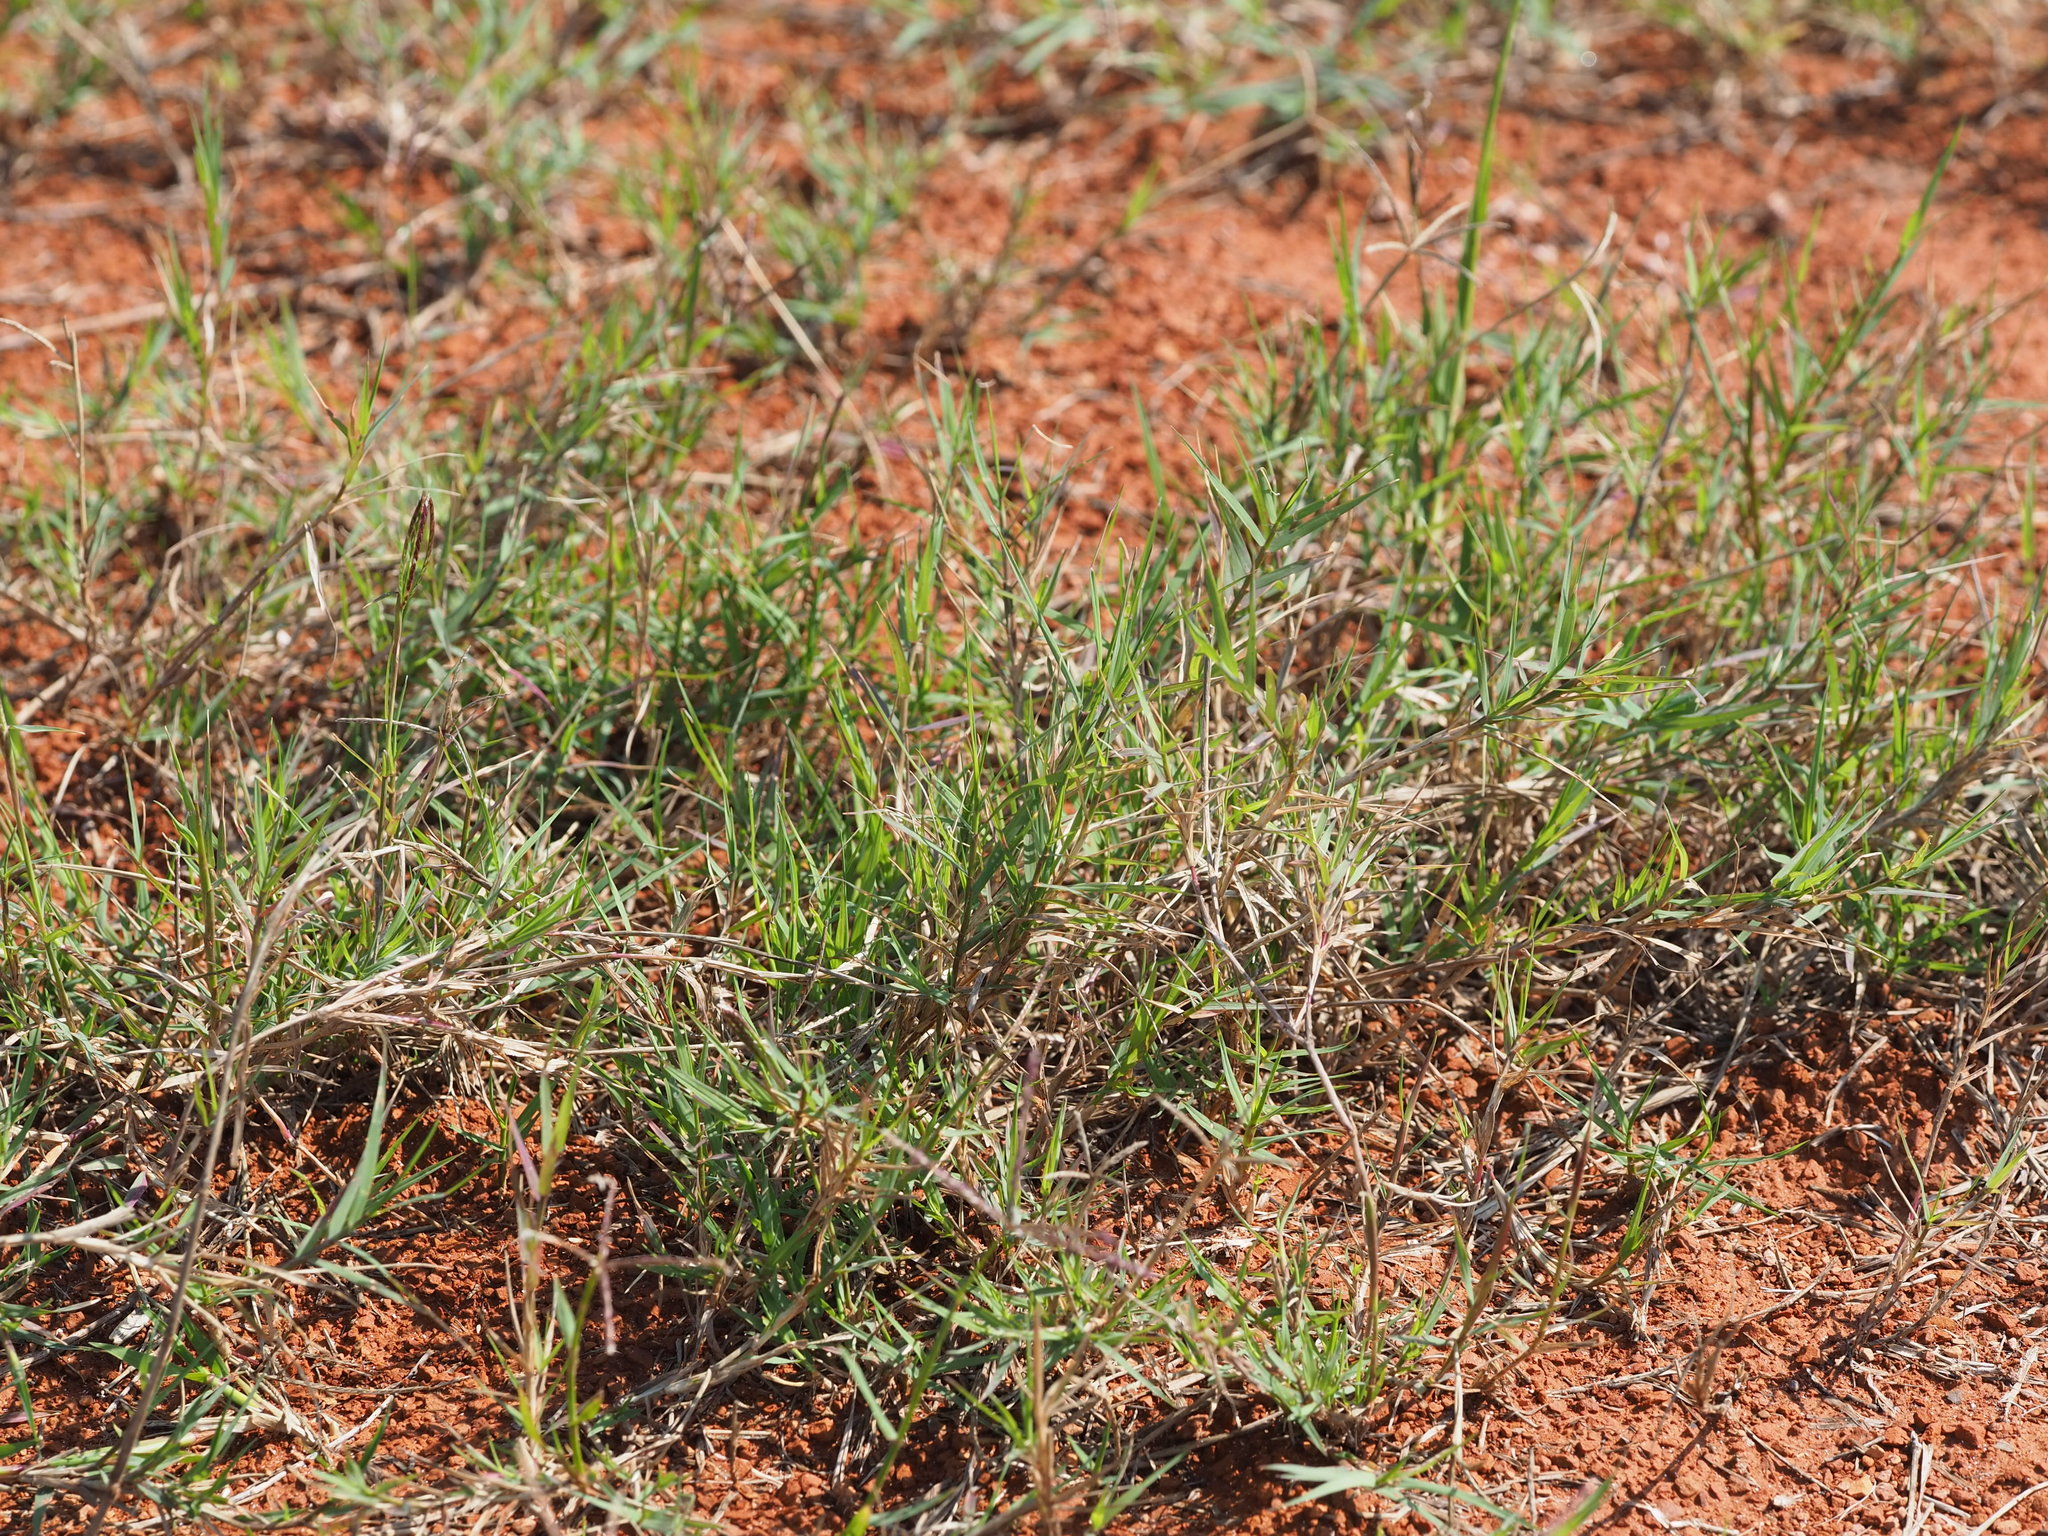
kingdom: Plantae
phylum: Tracheophyta
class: Liliopsida
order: Poales
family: Poaceae
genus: Cynodon
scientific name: Cynodon dactylon
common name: Bermuda grass
